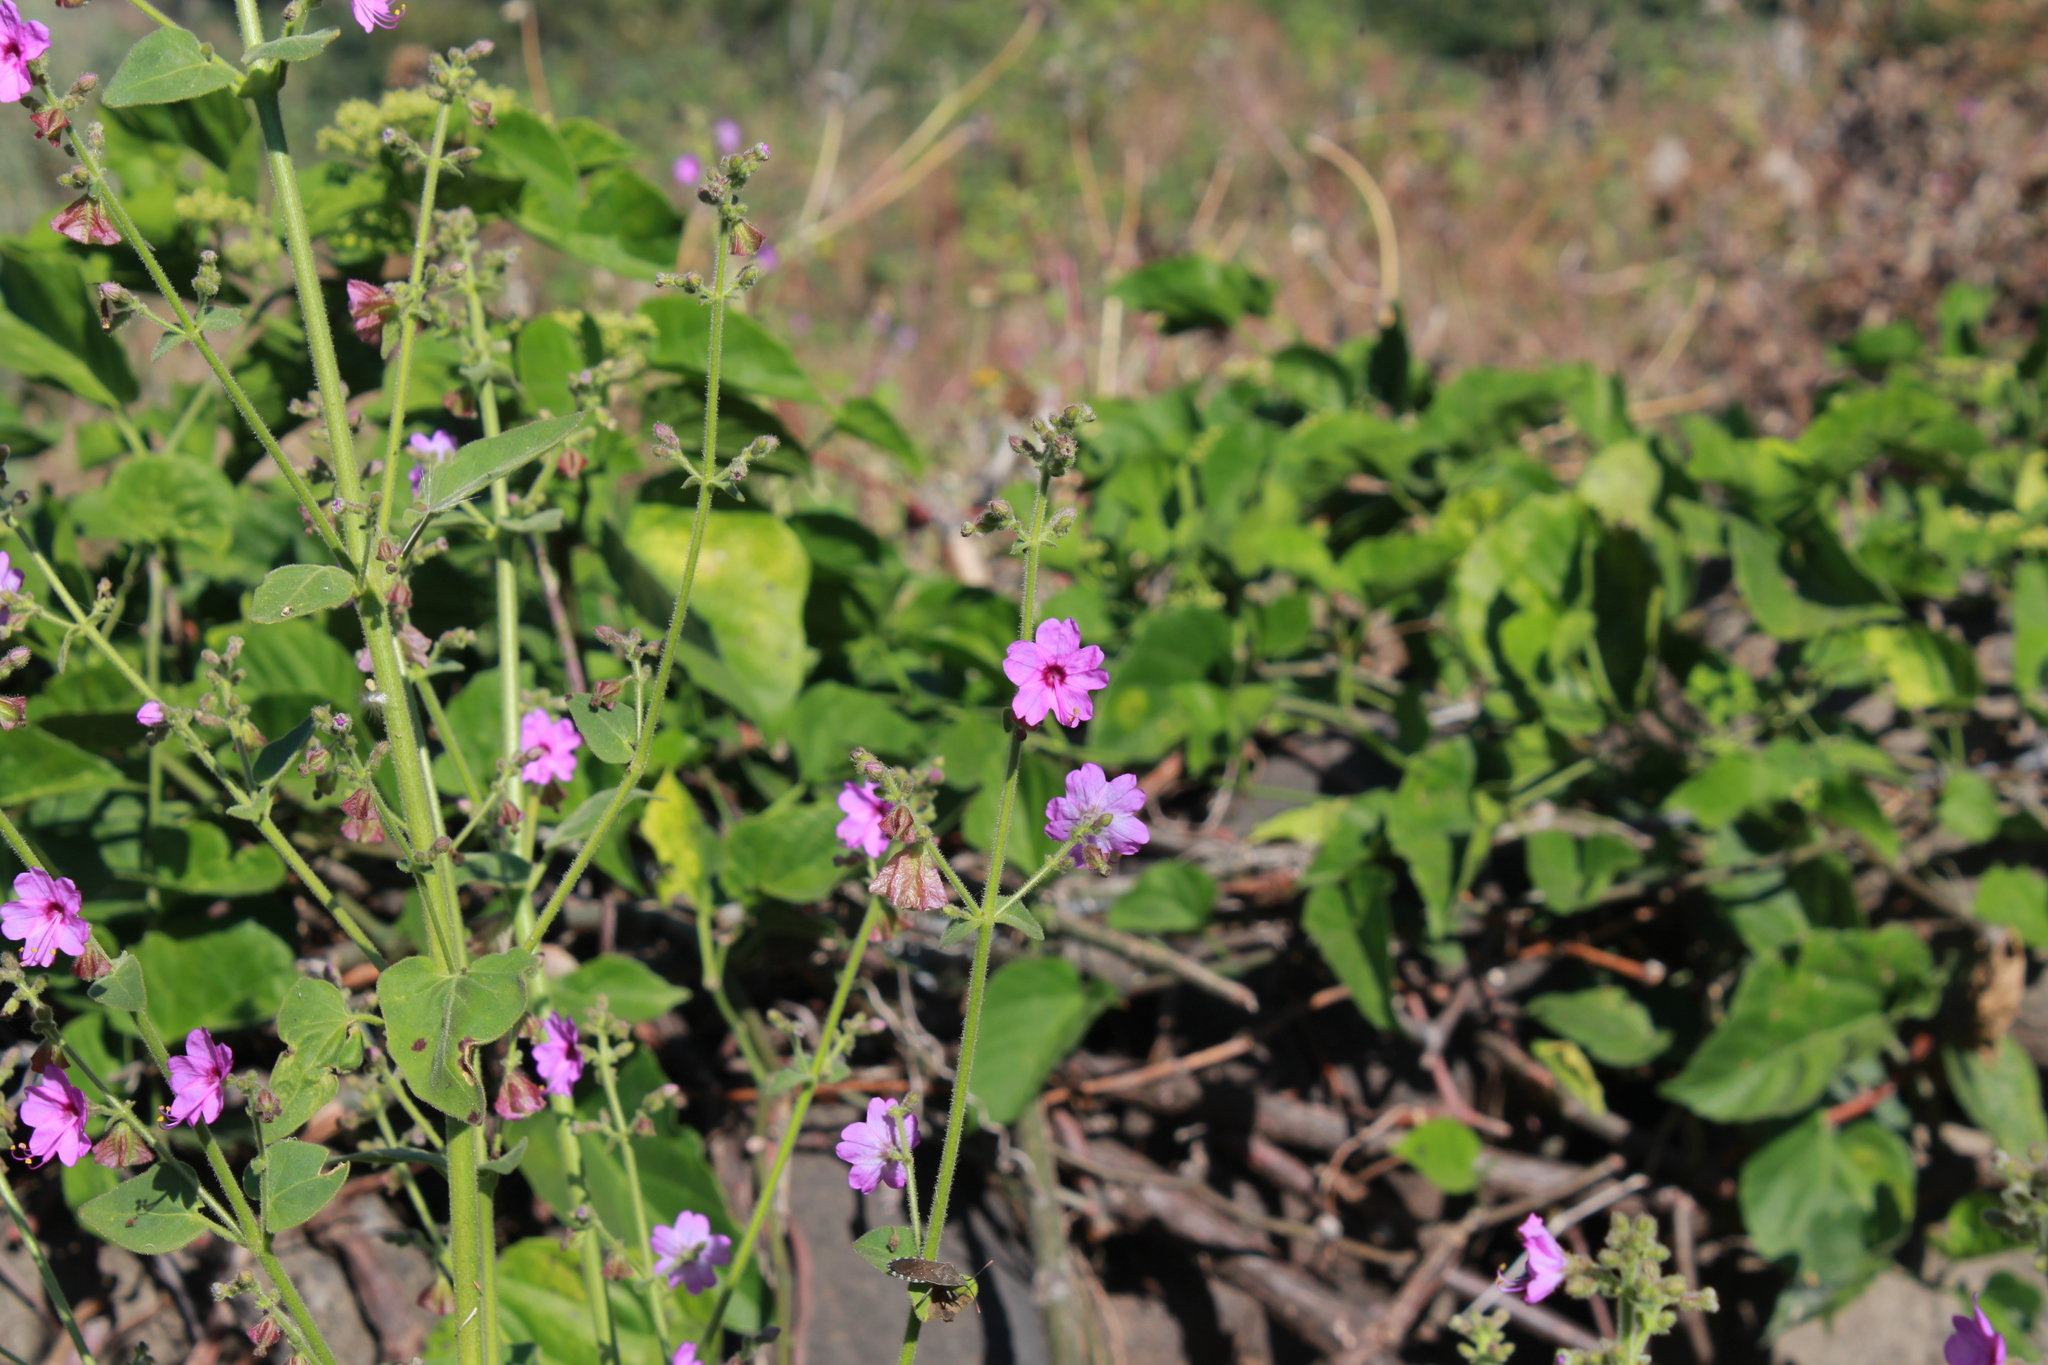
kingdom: Plantae
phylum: Tracheophyta
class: Magnoliopsida
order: Caryophyllales
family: Nyctaginaceae
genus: Mirabilis
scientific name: Mirabilis viscosa
